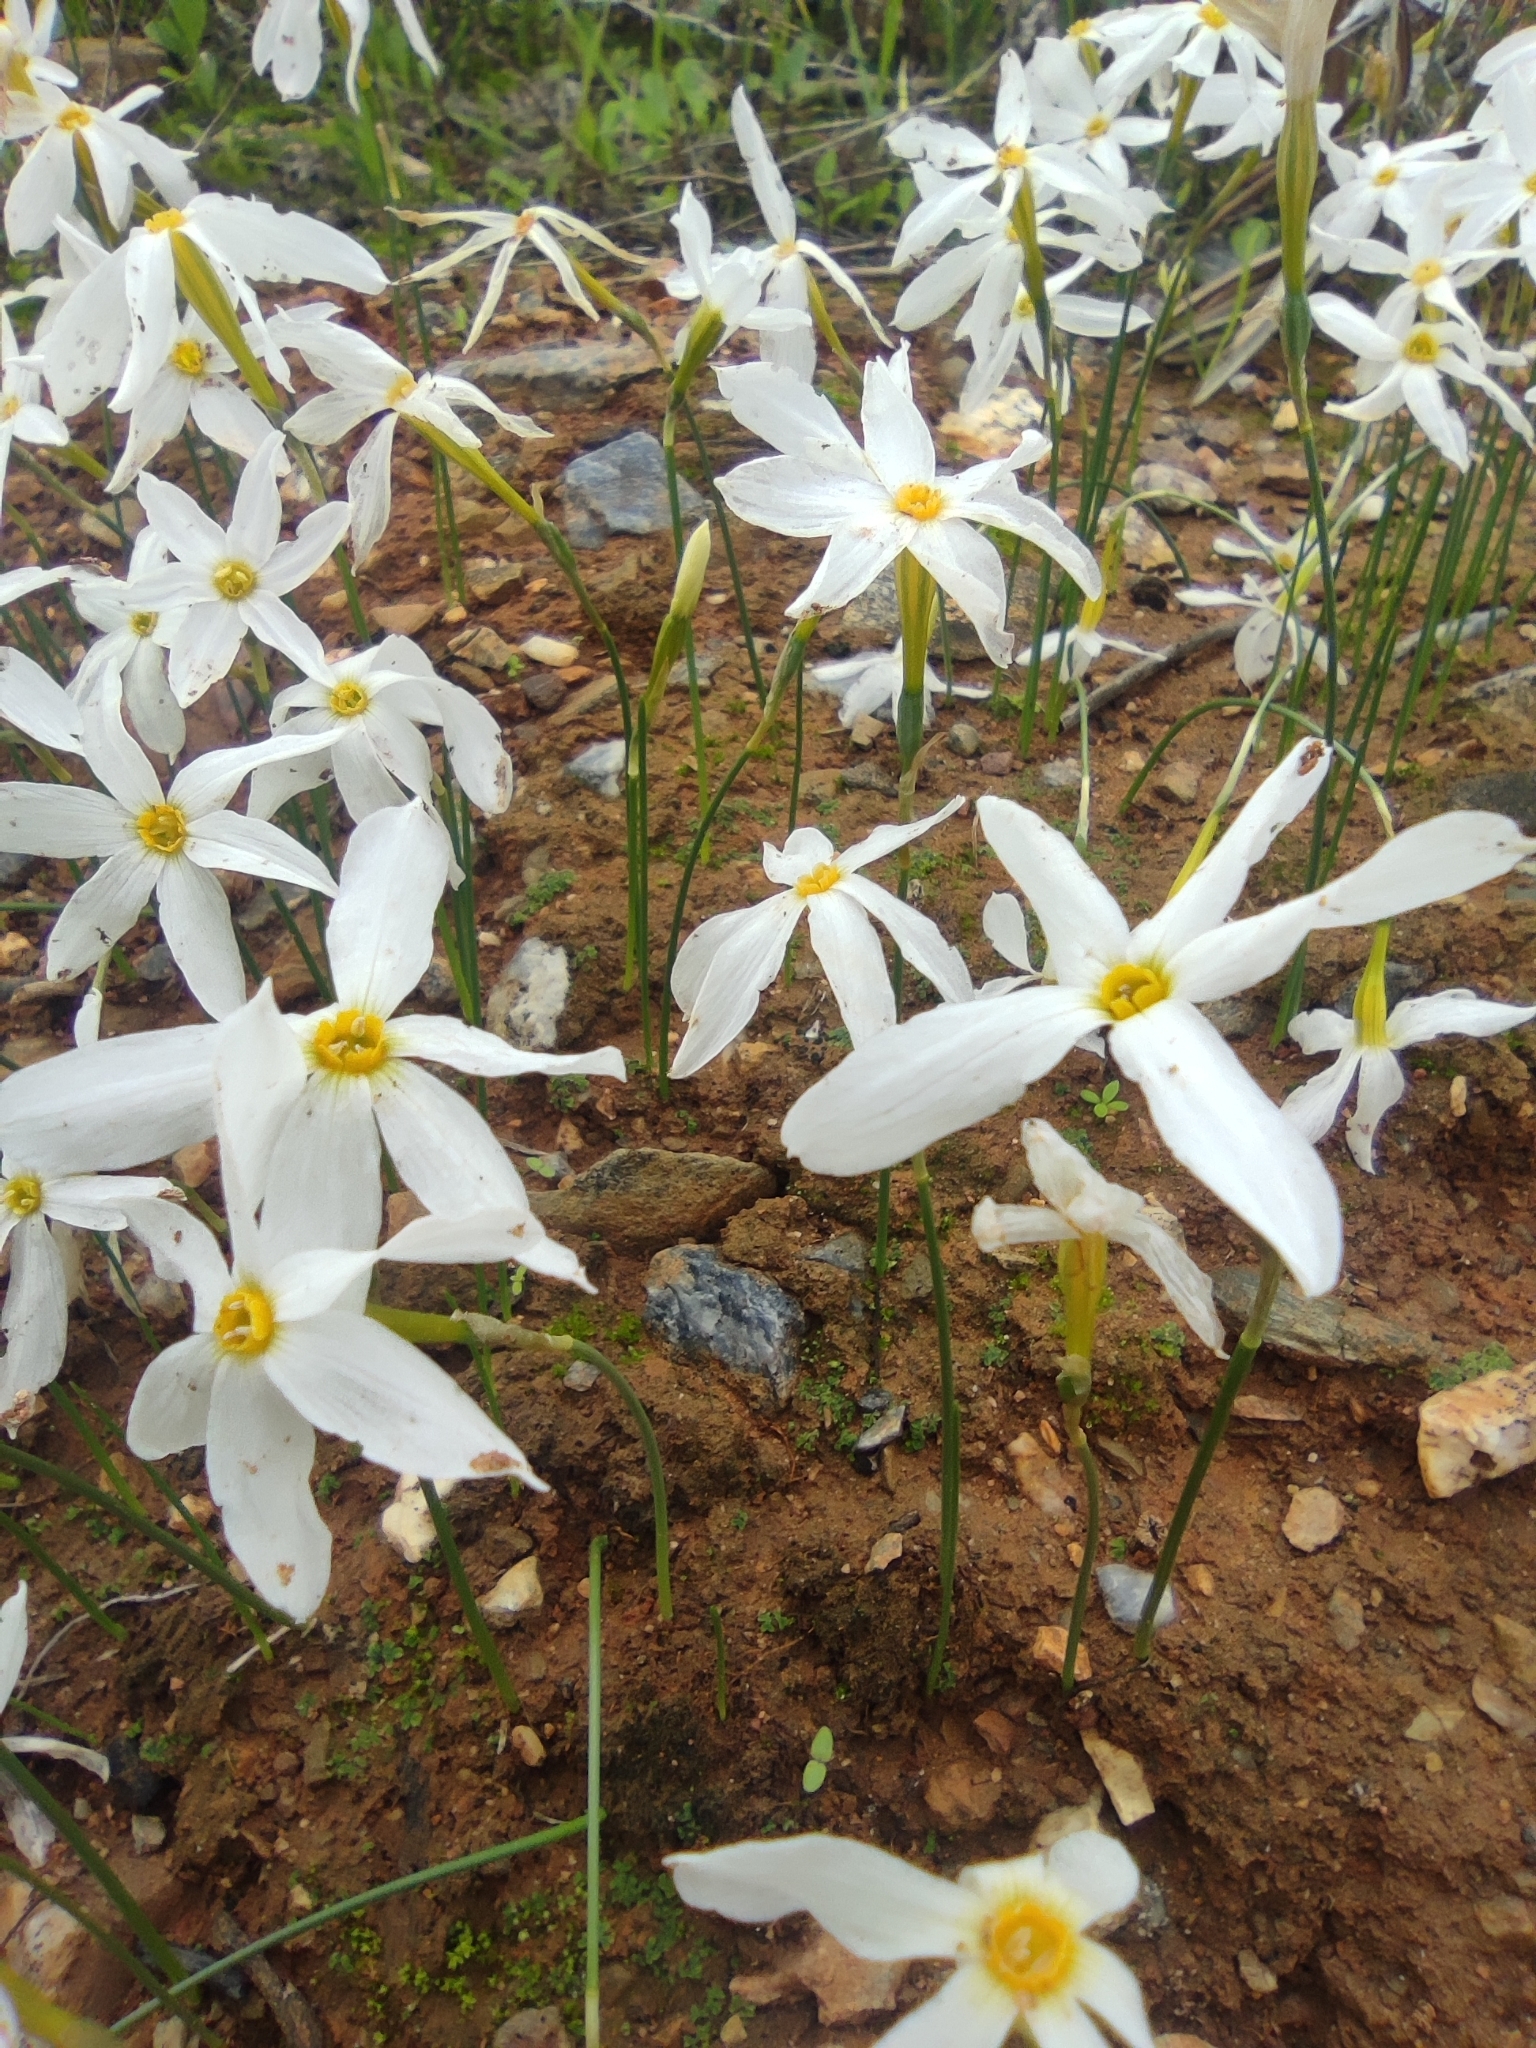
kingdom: Plantae
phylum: Tracheophyta
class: Liliopsida
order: Asparagales
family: Amaryllidaceae
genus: Narcissus
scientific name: Narcissus serotinus
